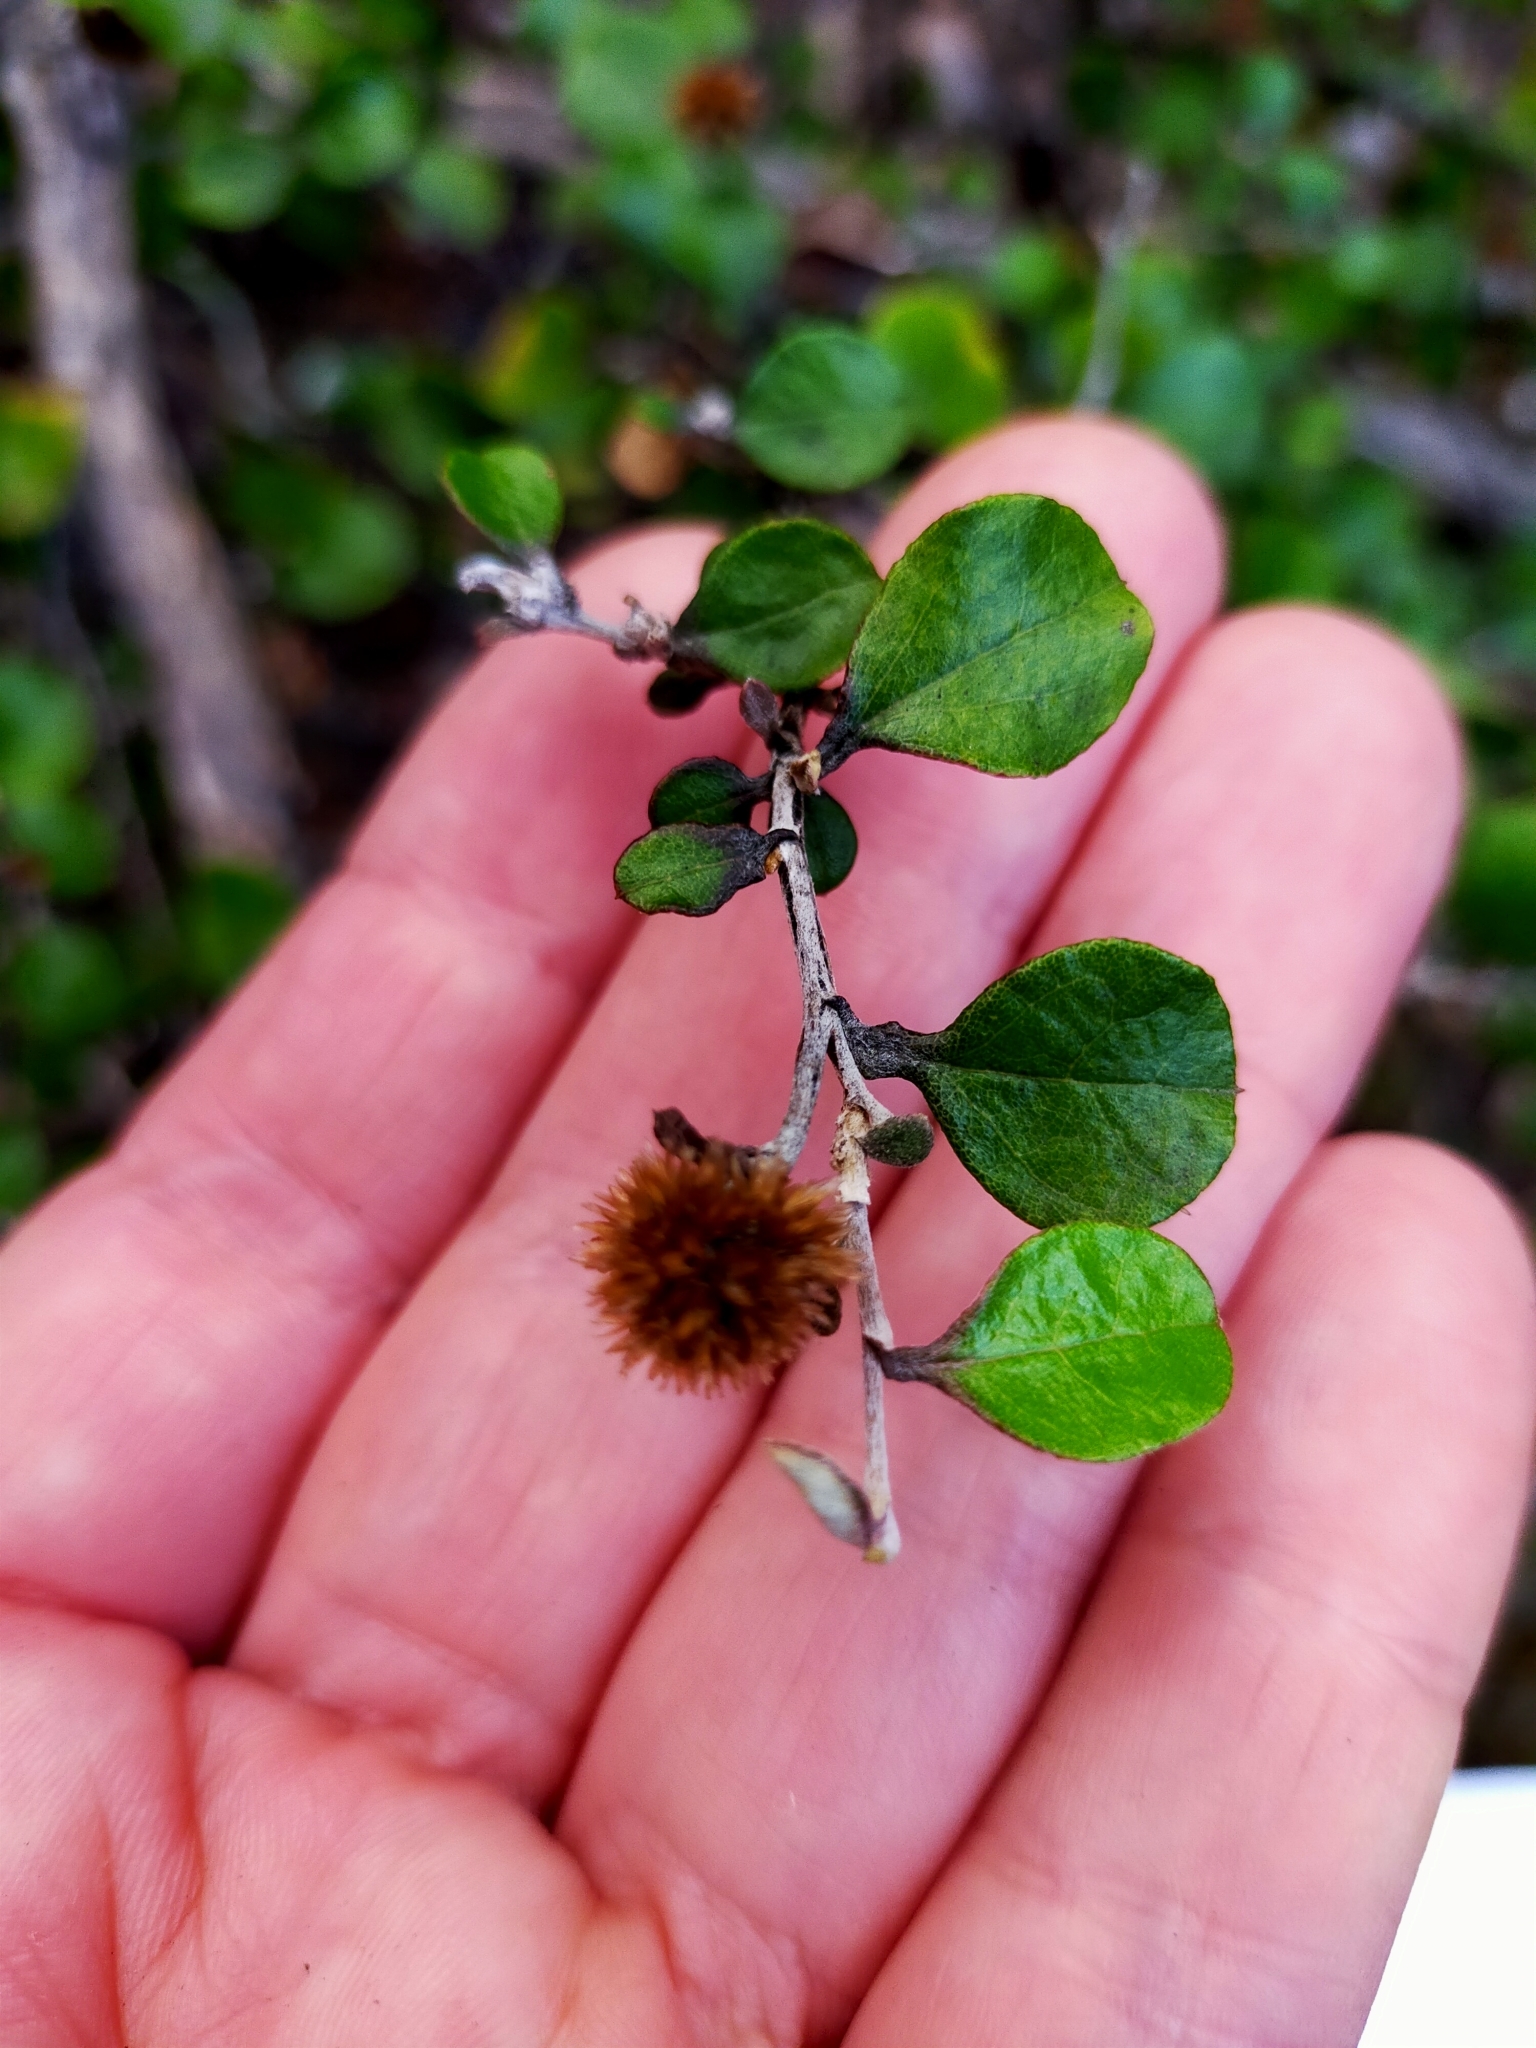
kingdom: Plantae
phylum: Tracheophyta
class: Magnoliopsida
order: Asterales
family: Asteraceae
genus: Ozothamnus
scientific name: Ozothamnus glomeratus
